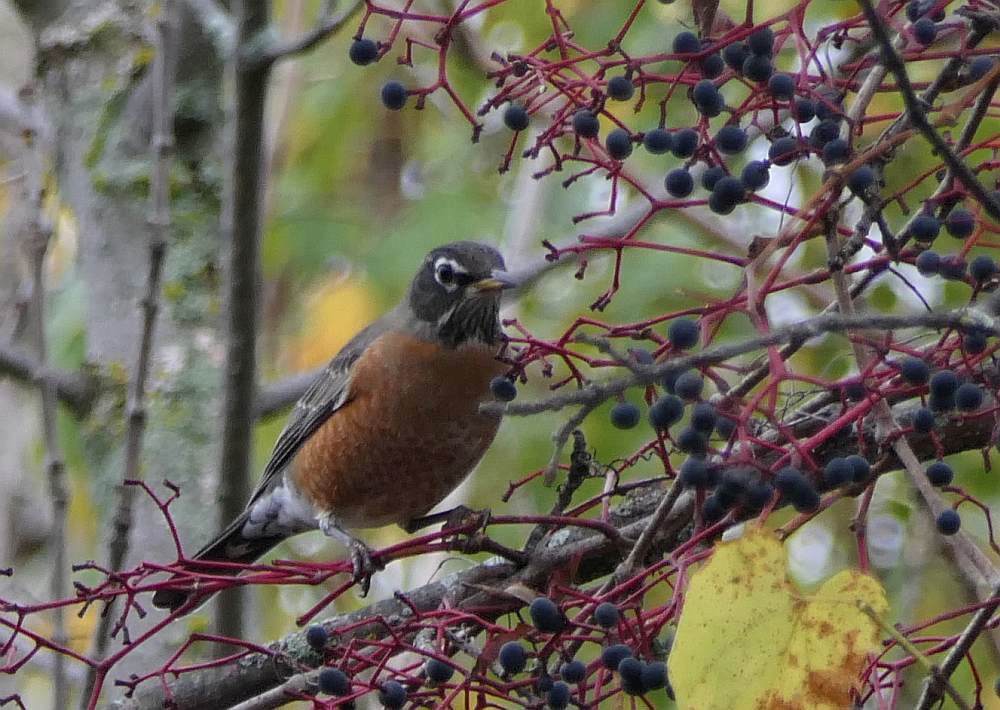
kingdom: Animalia
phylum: Chordata
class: Aves
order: Passeriformes
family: Turdidae
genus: Turdus
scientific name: Turdus migratorius
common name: American robin
